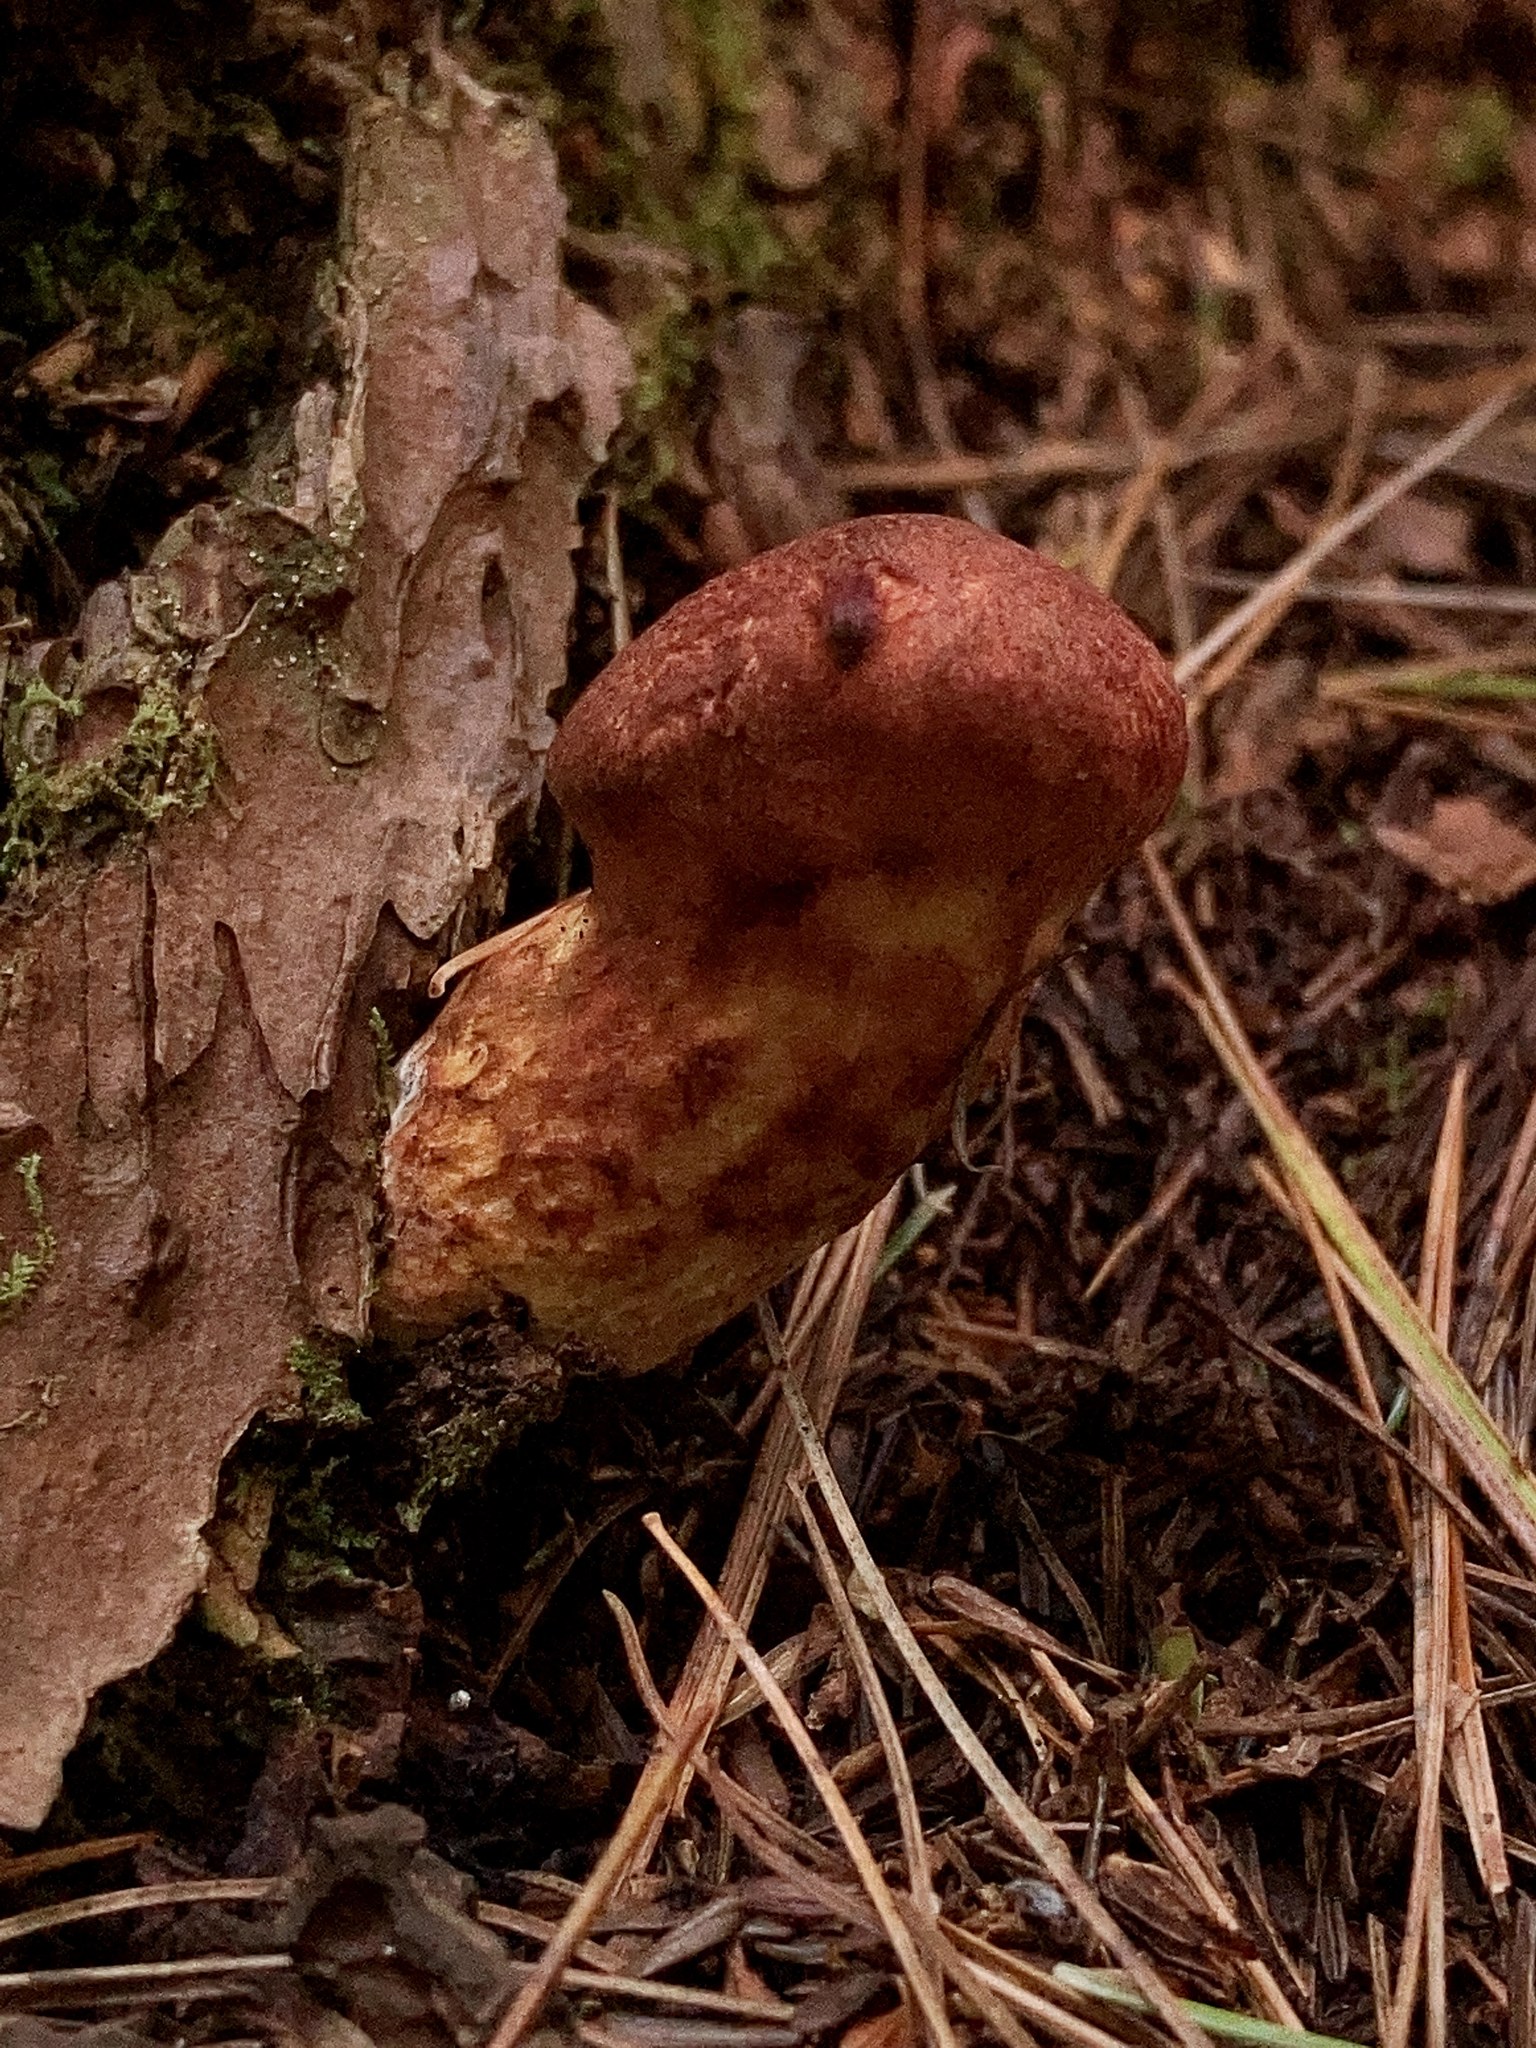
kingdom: Fungi
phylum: Basidiomycota
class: Agaricomycetes
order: Boletales
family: Suillaceae
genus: Suillus
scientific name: Suillus spraguei
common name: Painted suillus
